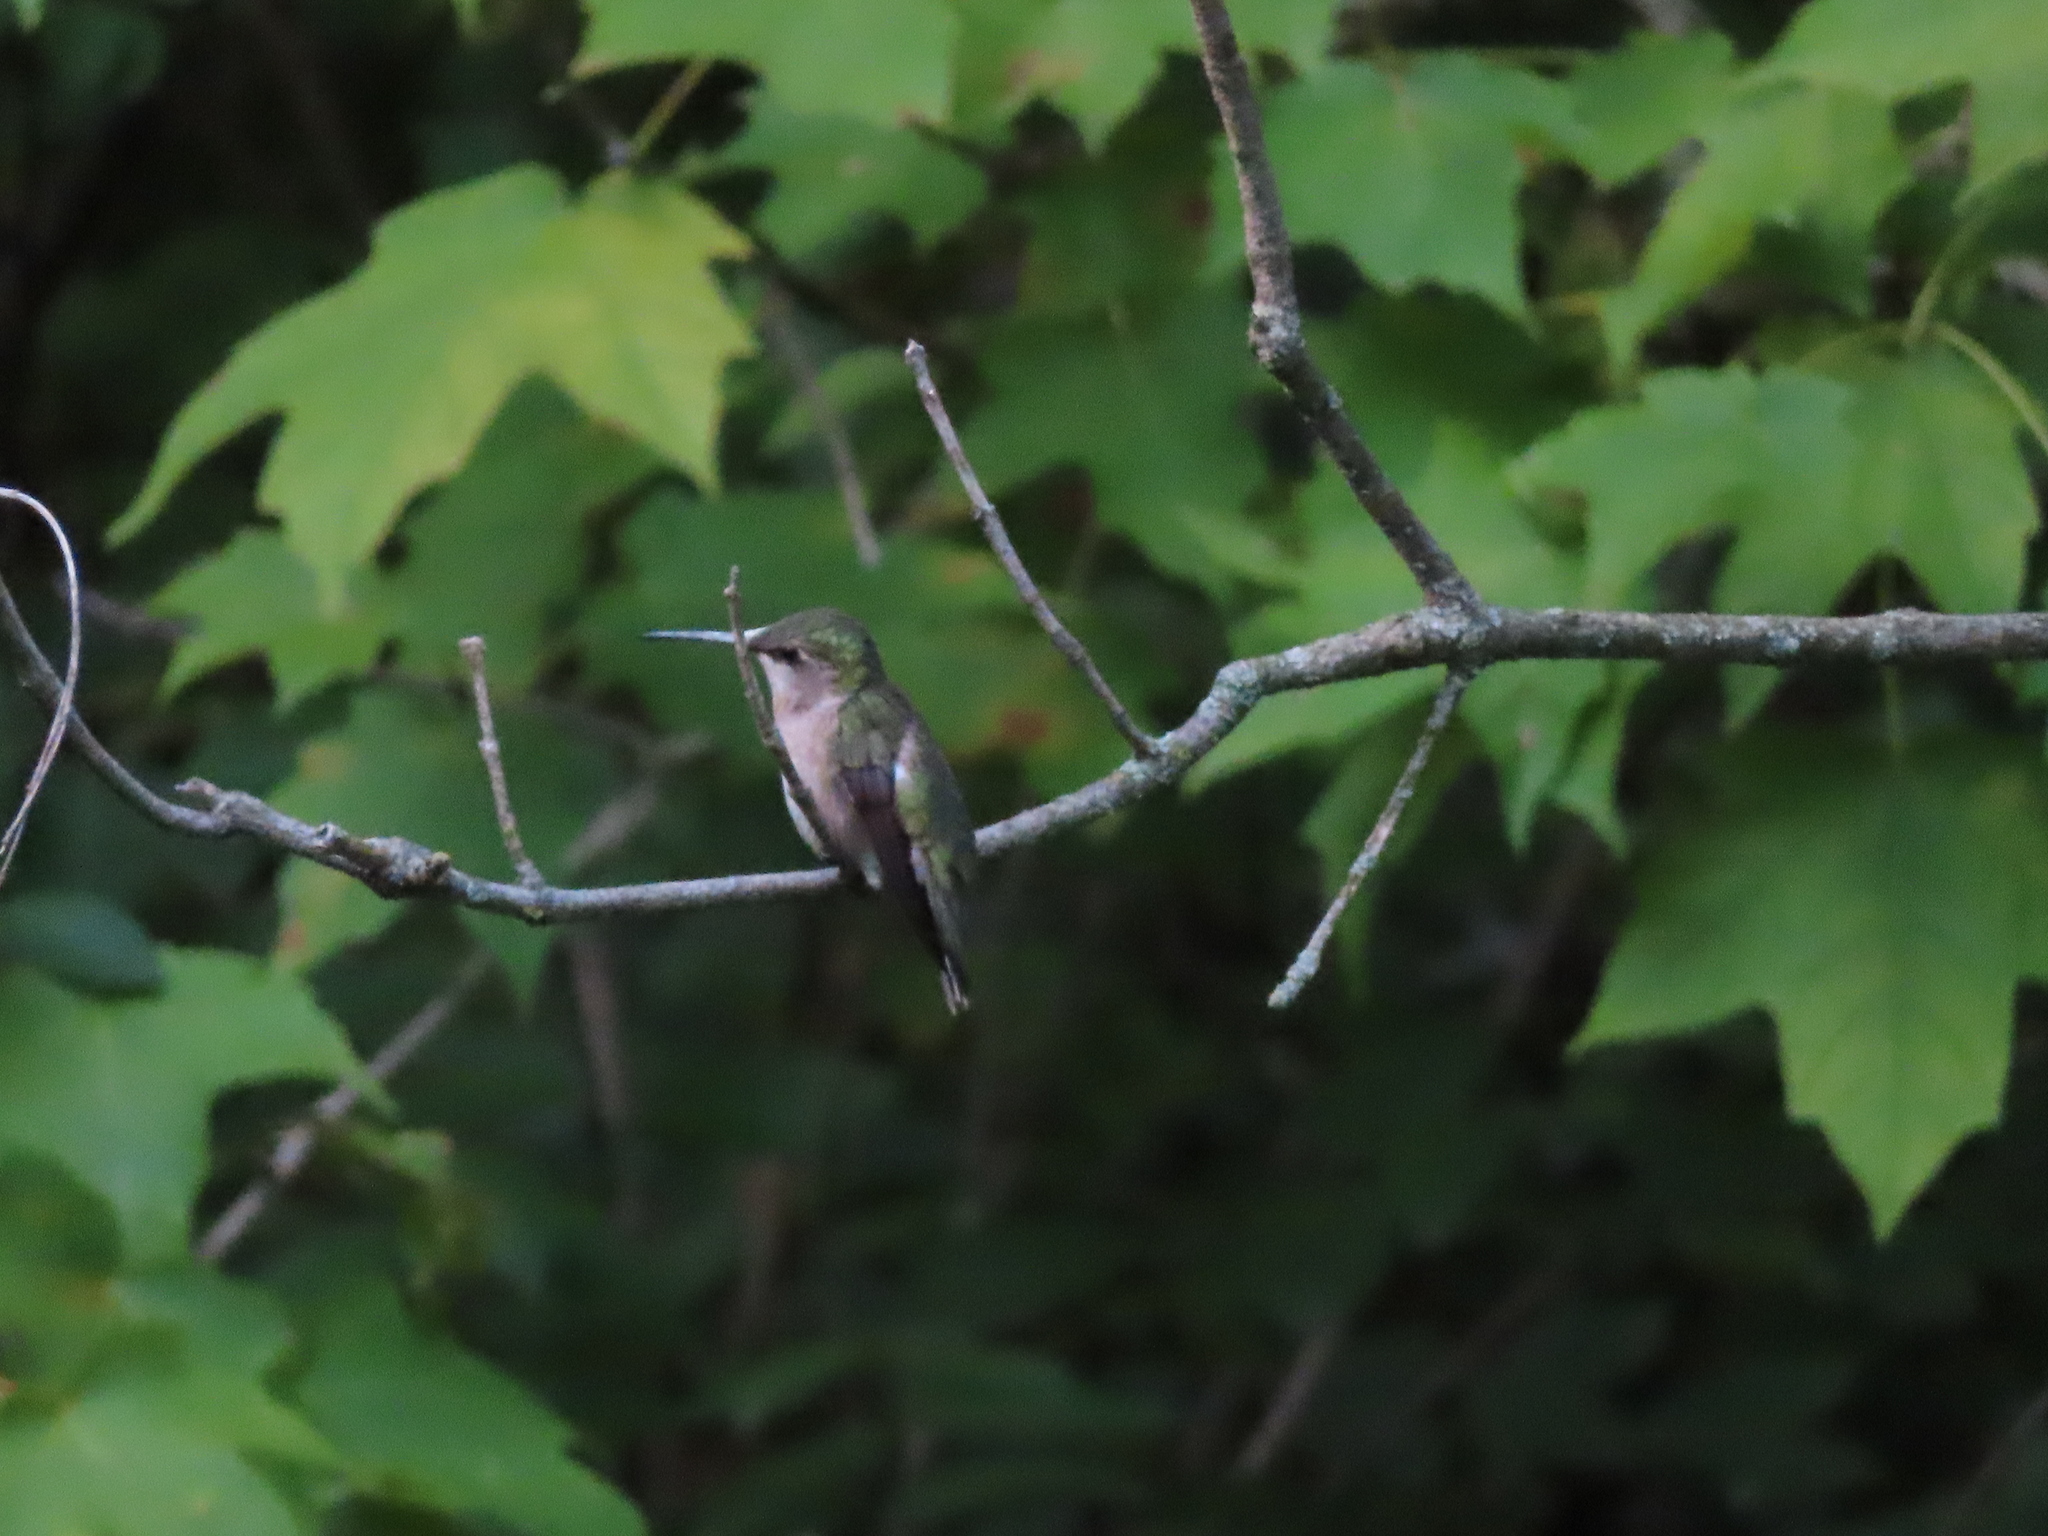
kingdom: Animalia
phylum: Chordata
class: Aves
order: Apodiformes
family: Trochilidae
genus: Archilochus
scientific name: Archilochus colubris
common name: Ruby-throated hummingbird
